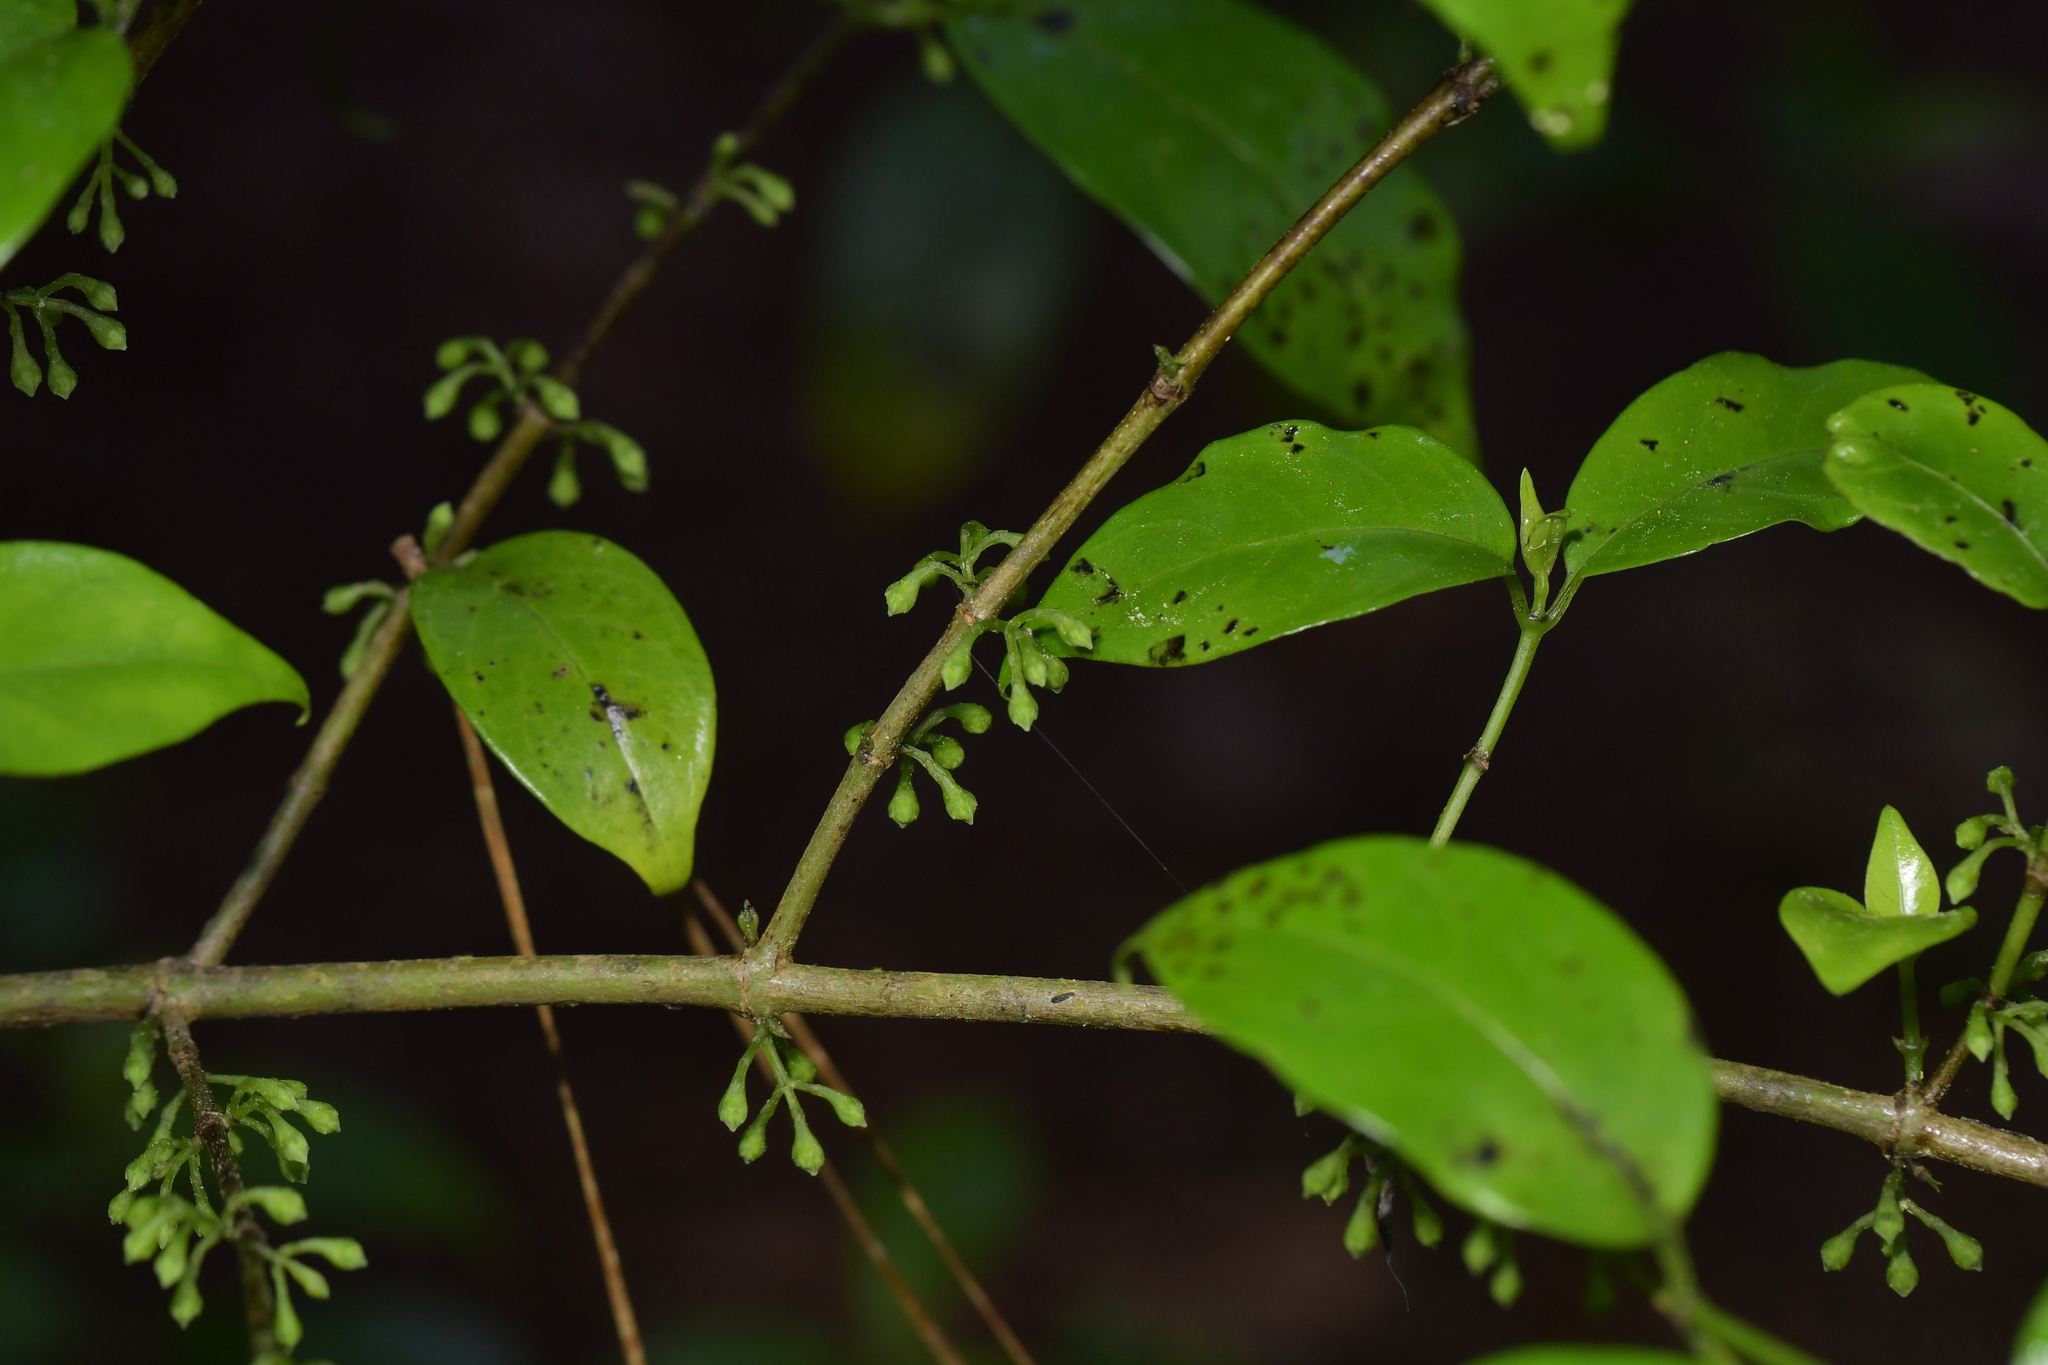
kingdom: Plantae
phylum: Tracheophyta
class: Magnoliopsida
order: Gentianales
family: Loganiaceae
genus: Geniostoma
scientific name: Geniostoma ligustrifolium
